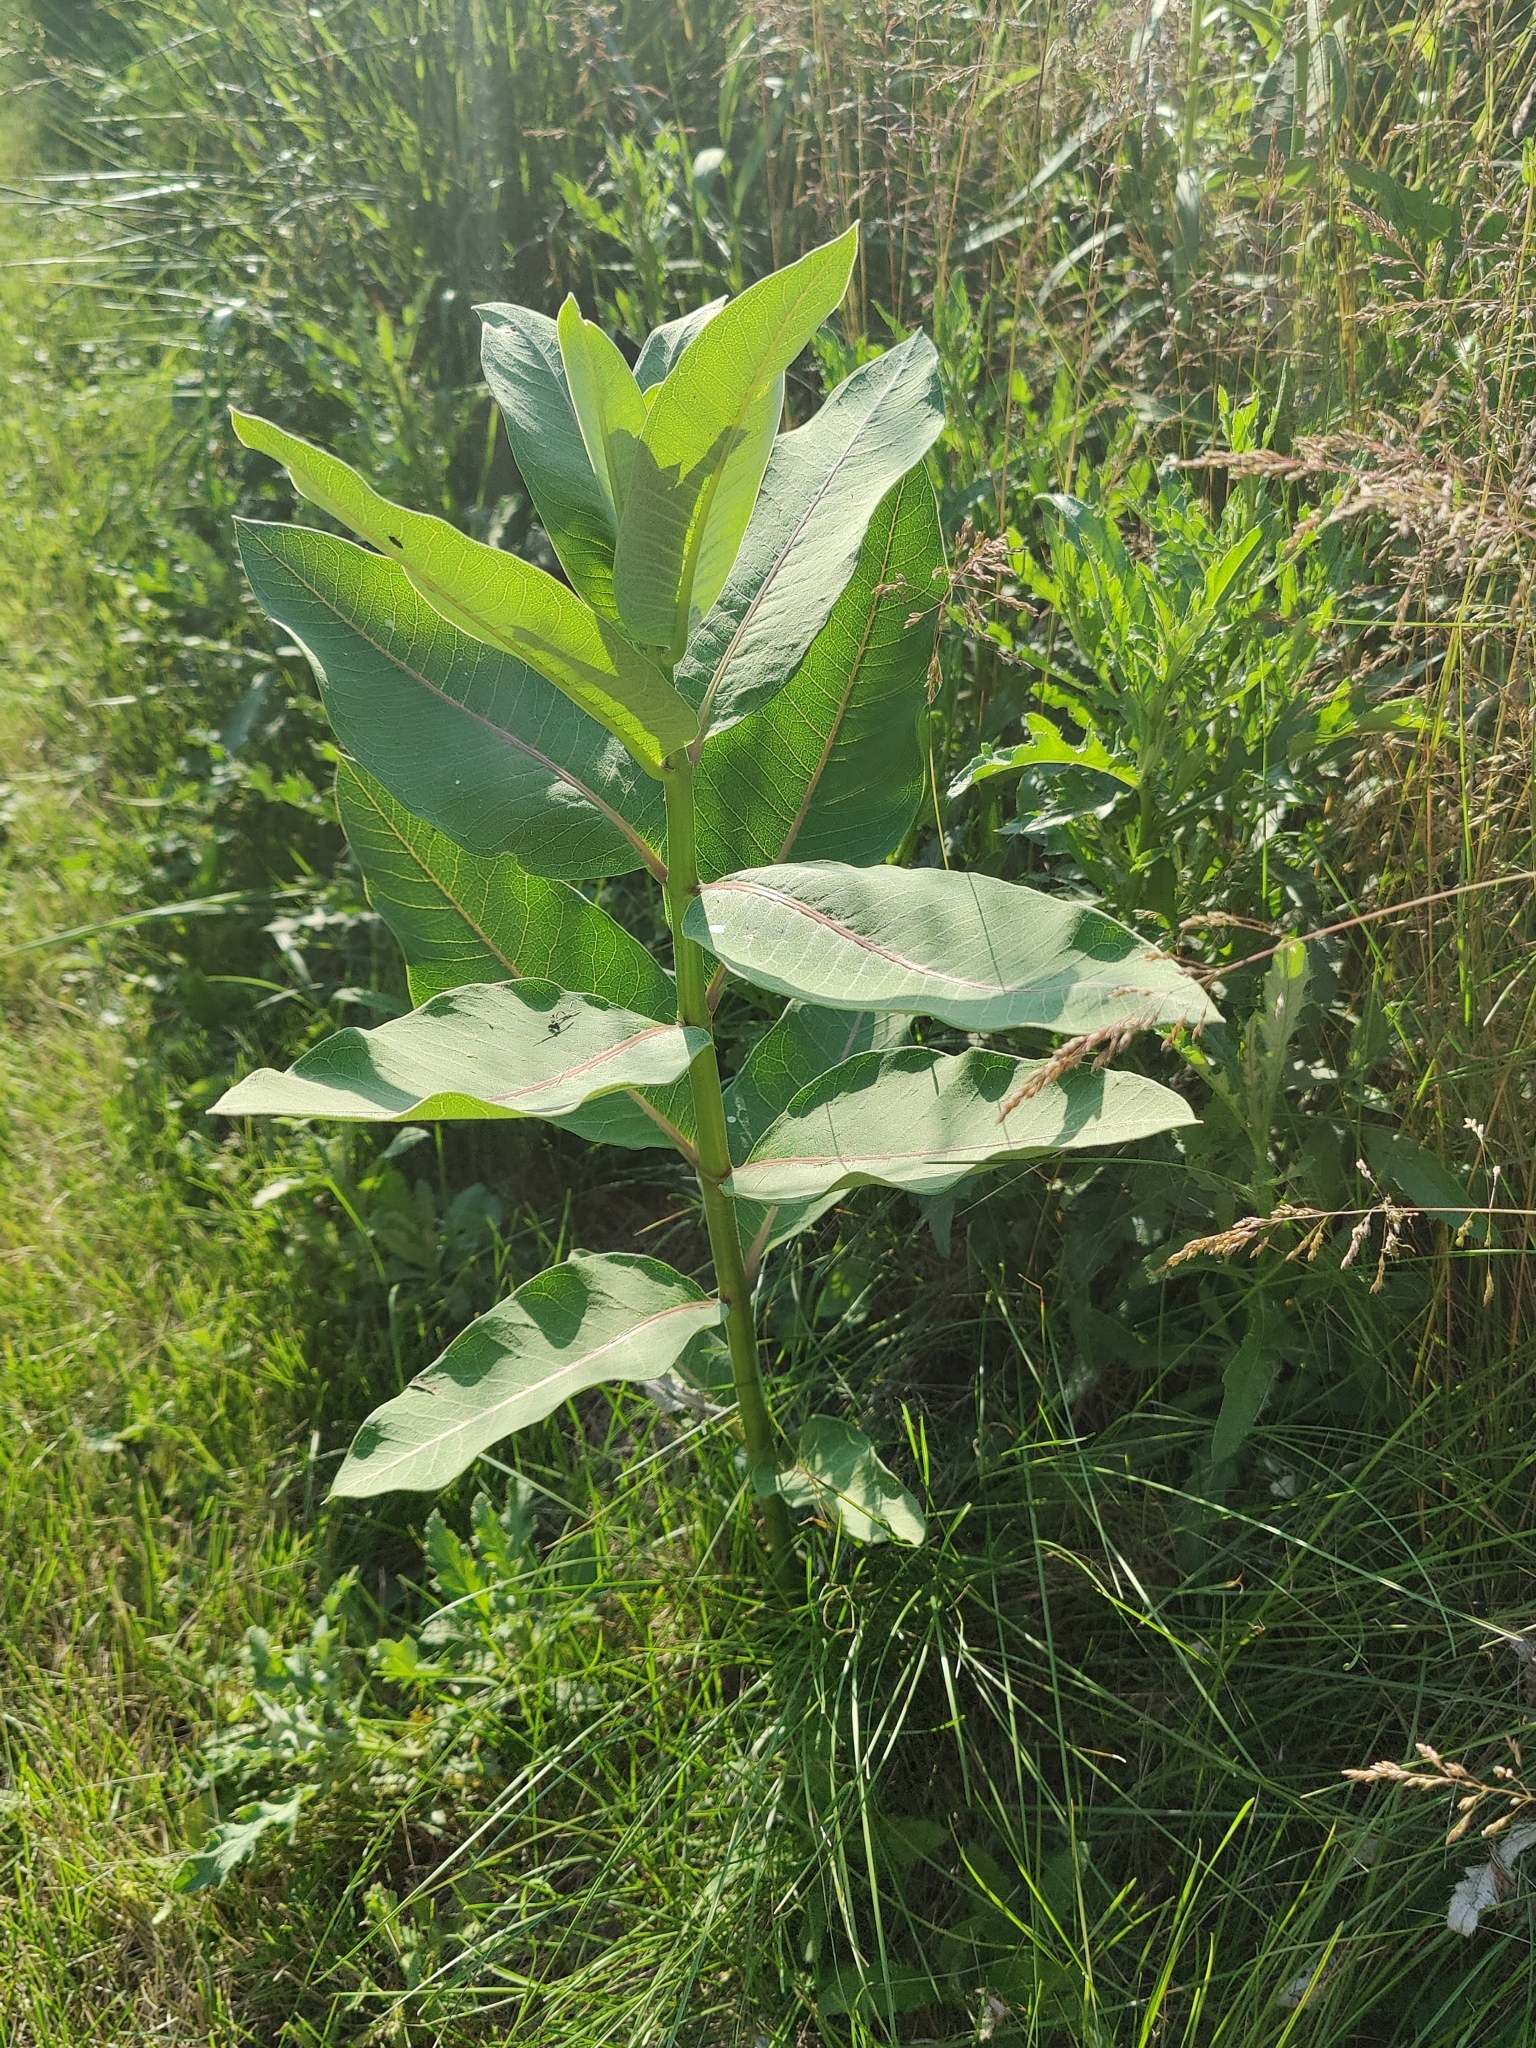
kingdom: Plantae
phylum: Tracheophyta
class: Magnoliopsida
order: Gentianales
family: Apocynaceae
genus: Asclepias
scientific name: Asclepias syriaca
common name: Common milkweed
